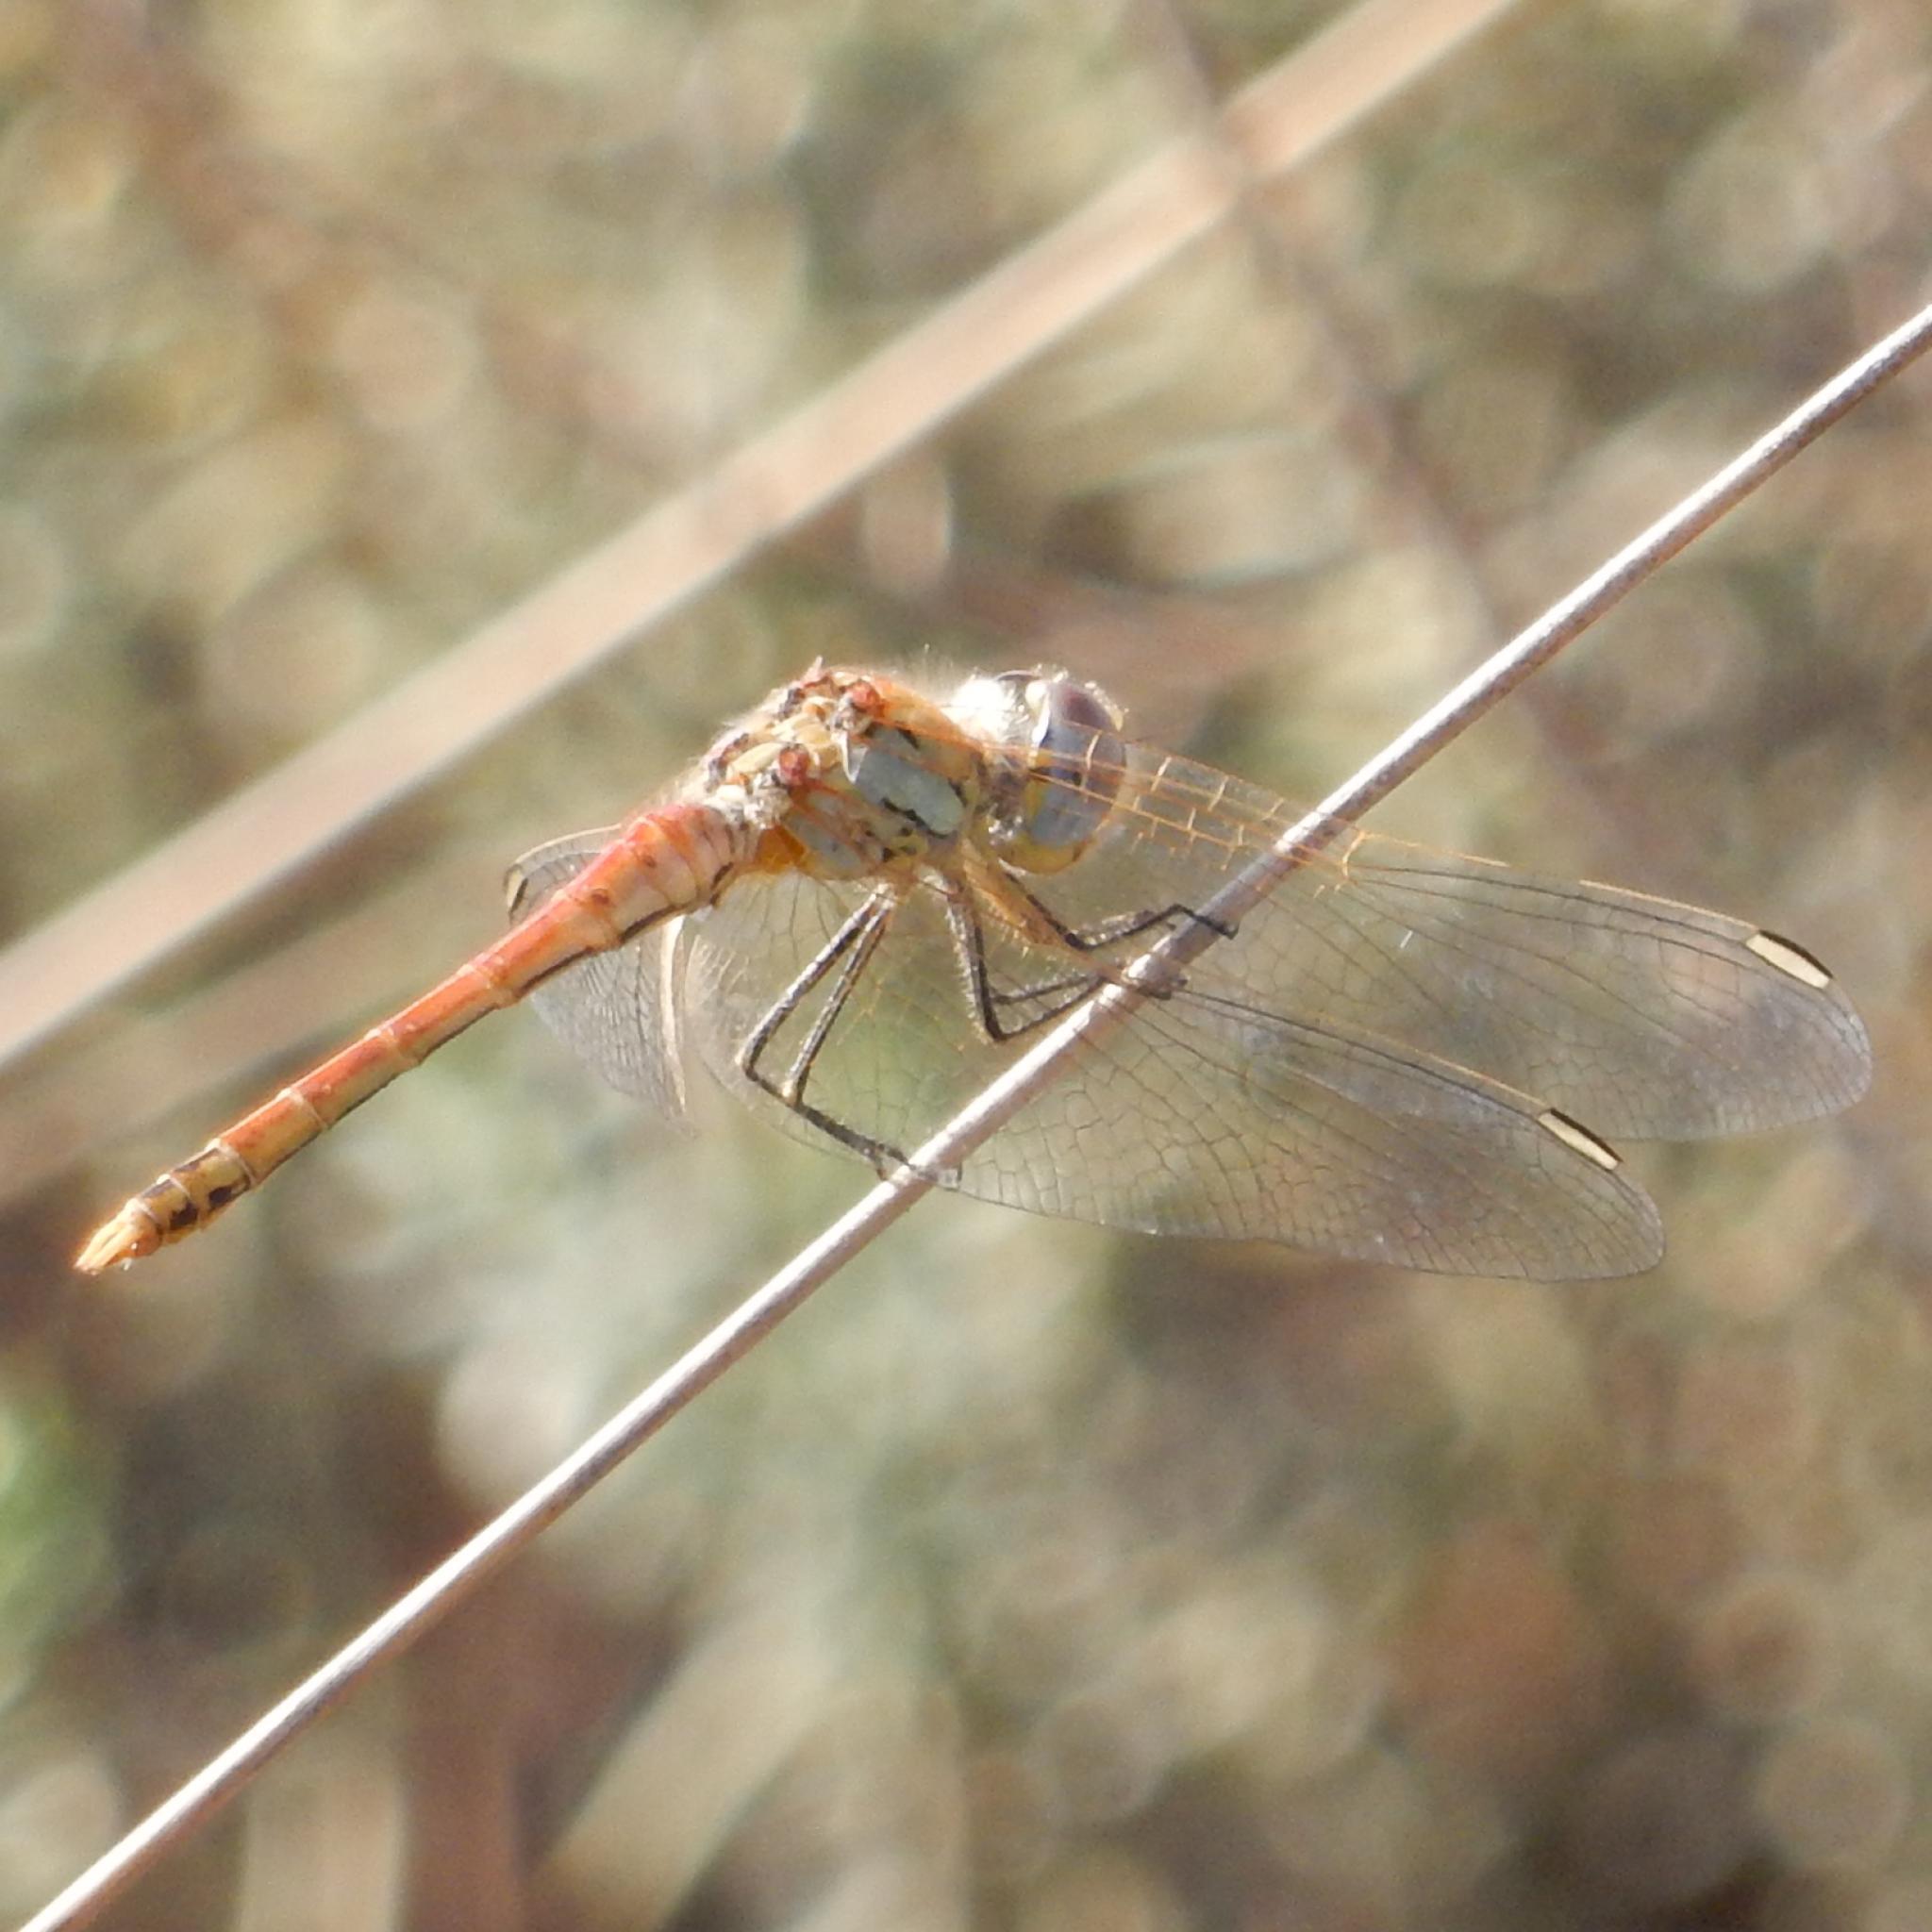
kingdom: Animalia
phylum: Arthropoda
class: Insecta
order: Odonata
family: Libellulidae
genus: Sympetrum
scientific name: Sympetrum fonscolombii
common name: Red-veined darter
